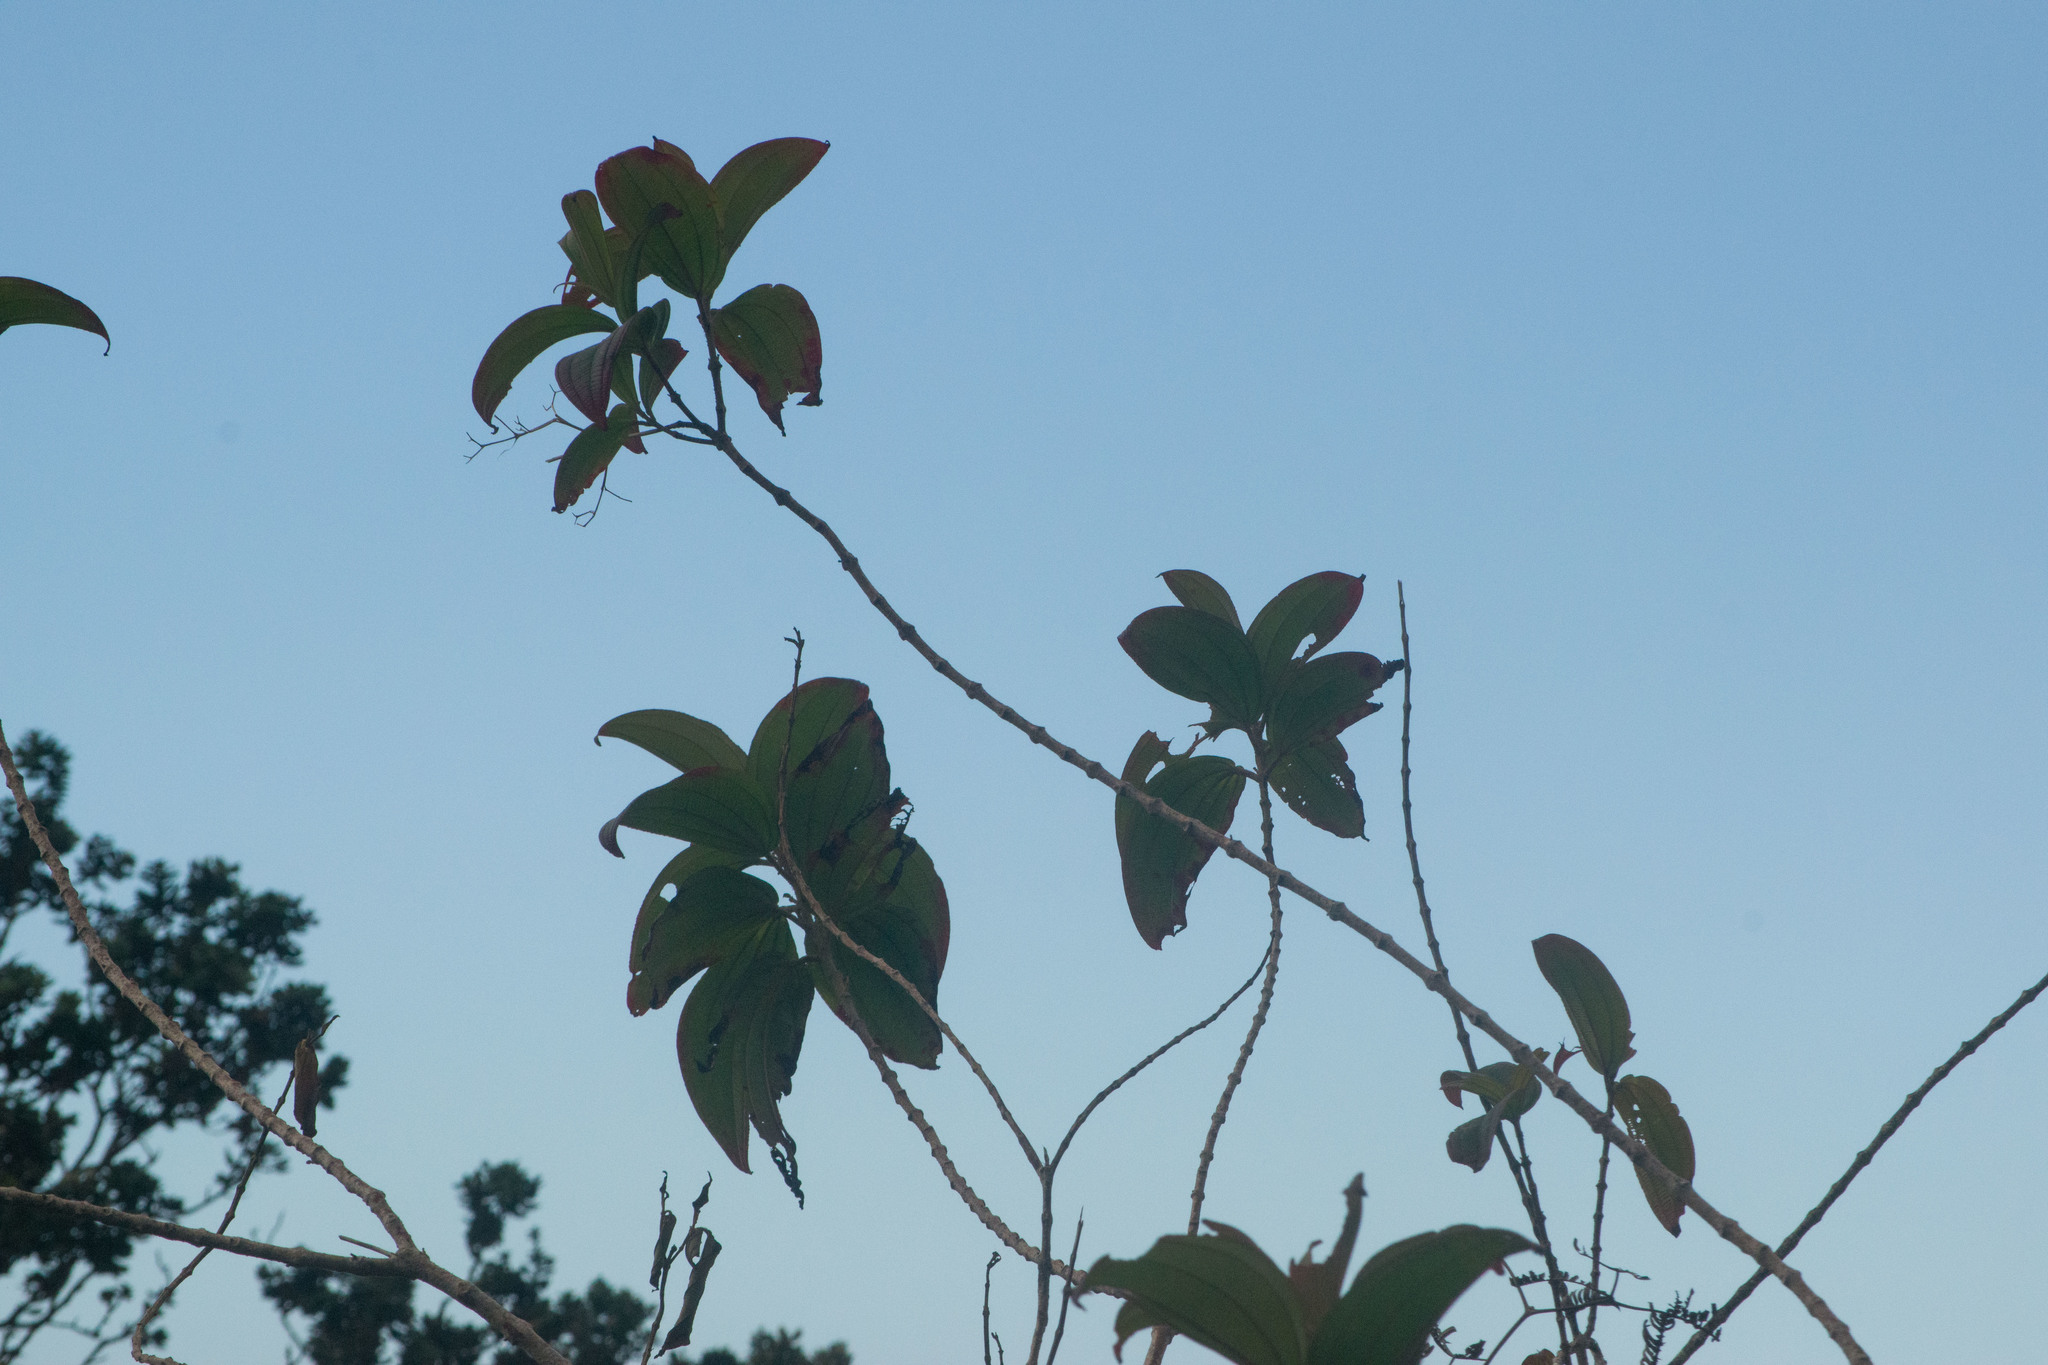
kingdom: Plantae
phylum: Tracheophyta
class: Magnoliopsida
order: Myrtales
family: Melastomataceae
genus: Oxyspora
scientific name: Oxyspora paniculata
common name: Bristletips
